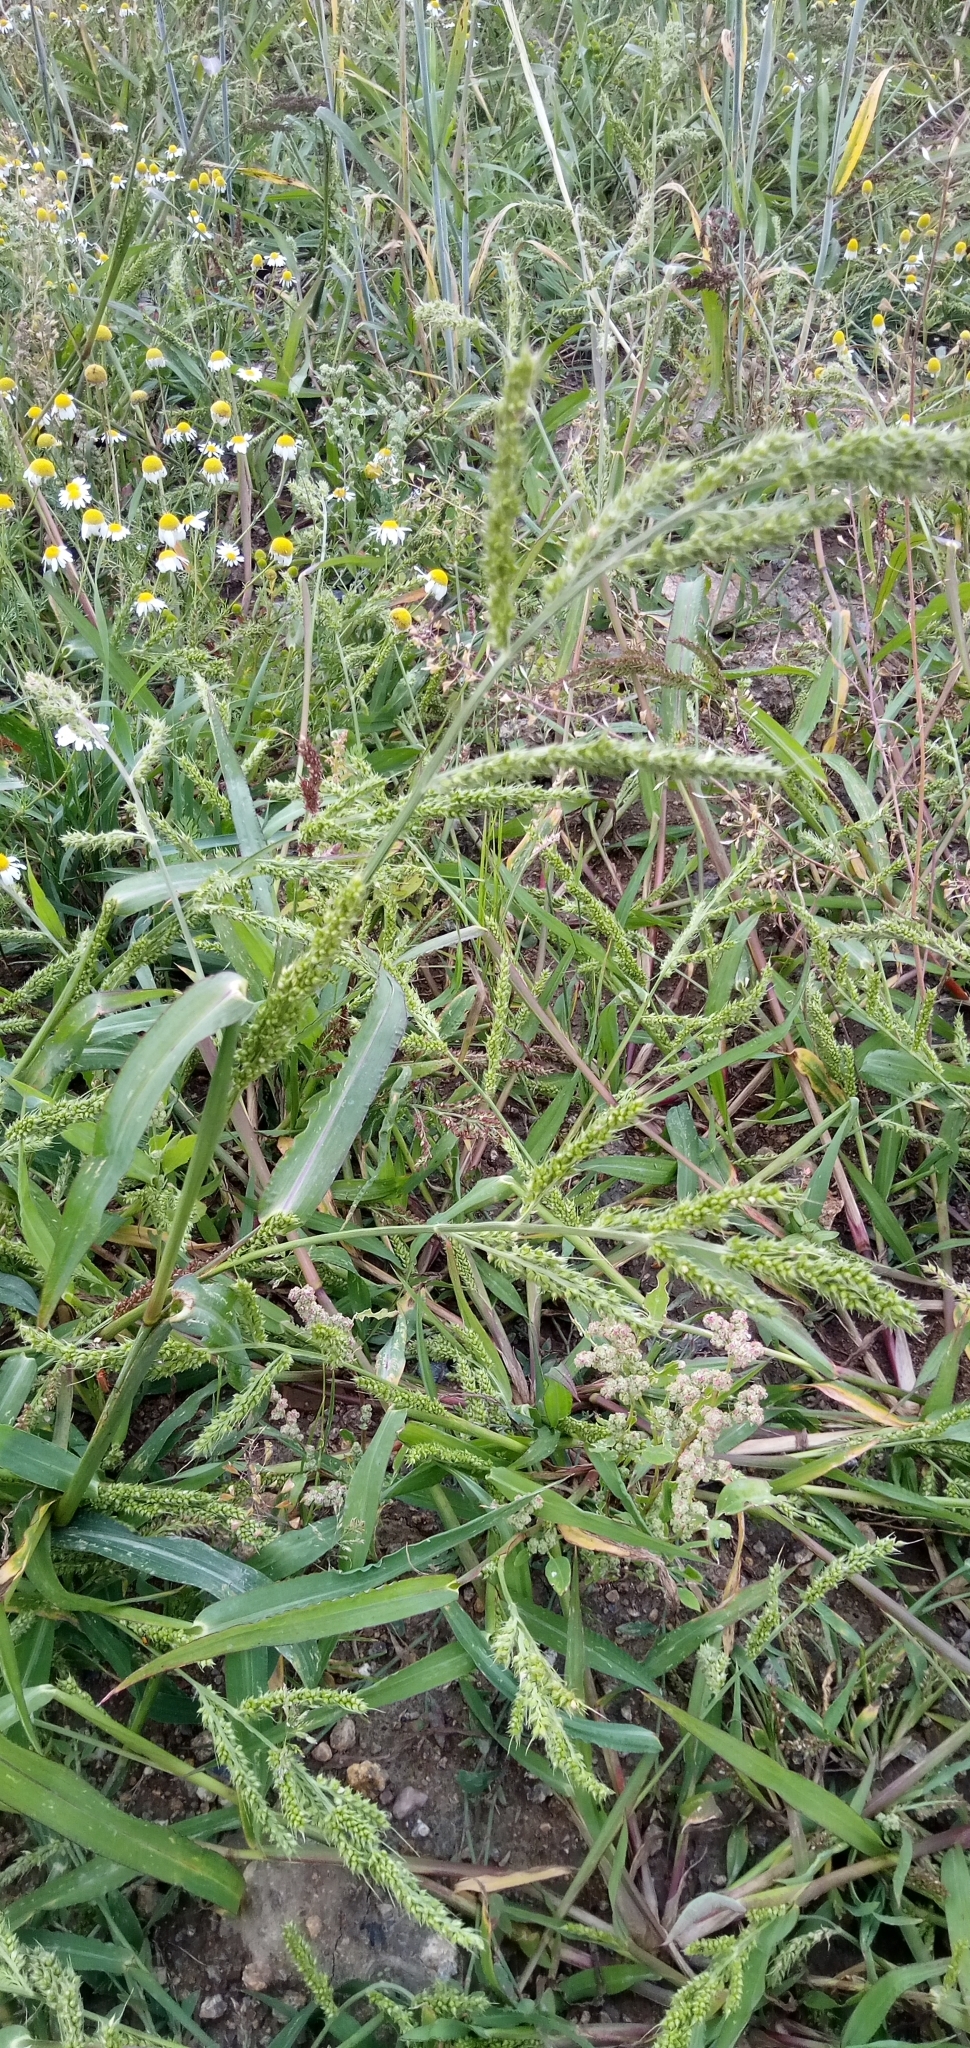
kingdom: Plantae
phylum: Tracheophyta
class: Liliopsida
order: Poales
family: Poaceae
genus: Echinochloa
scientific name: Echinochloa crus-galli
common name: Cockspur
